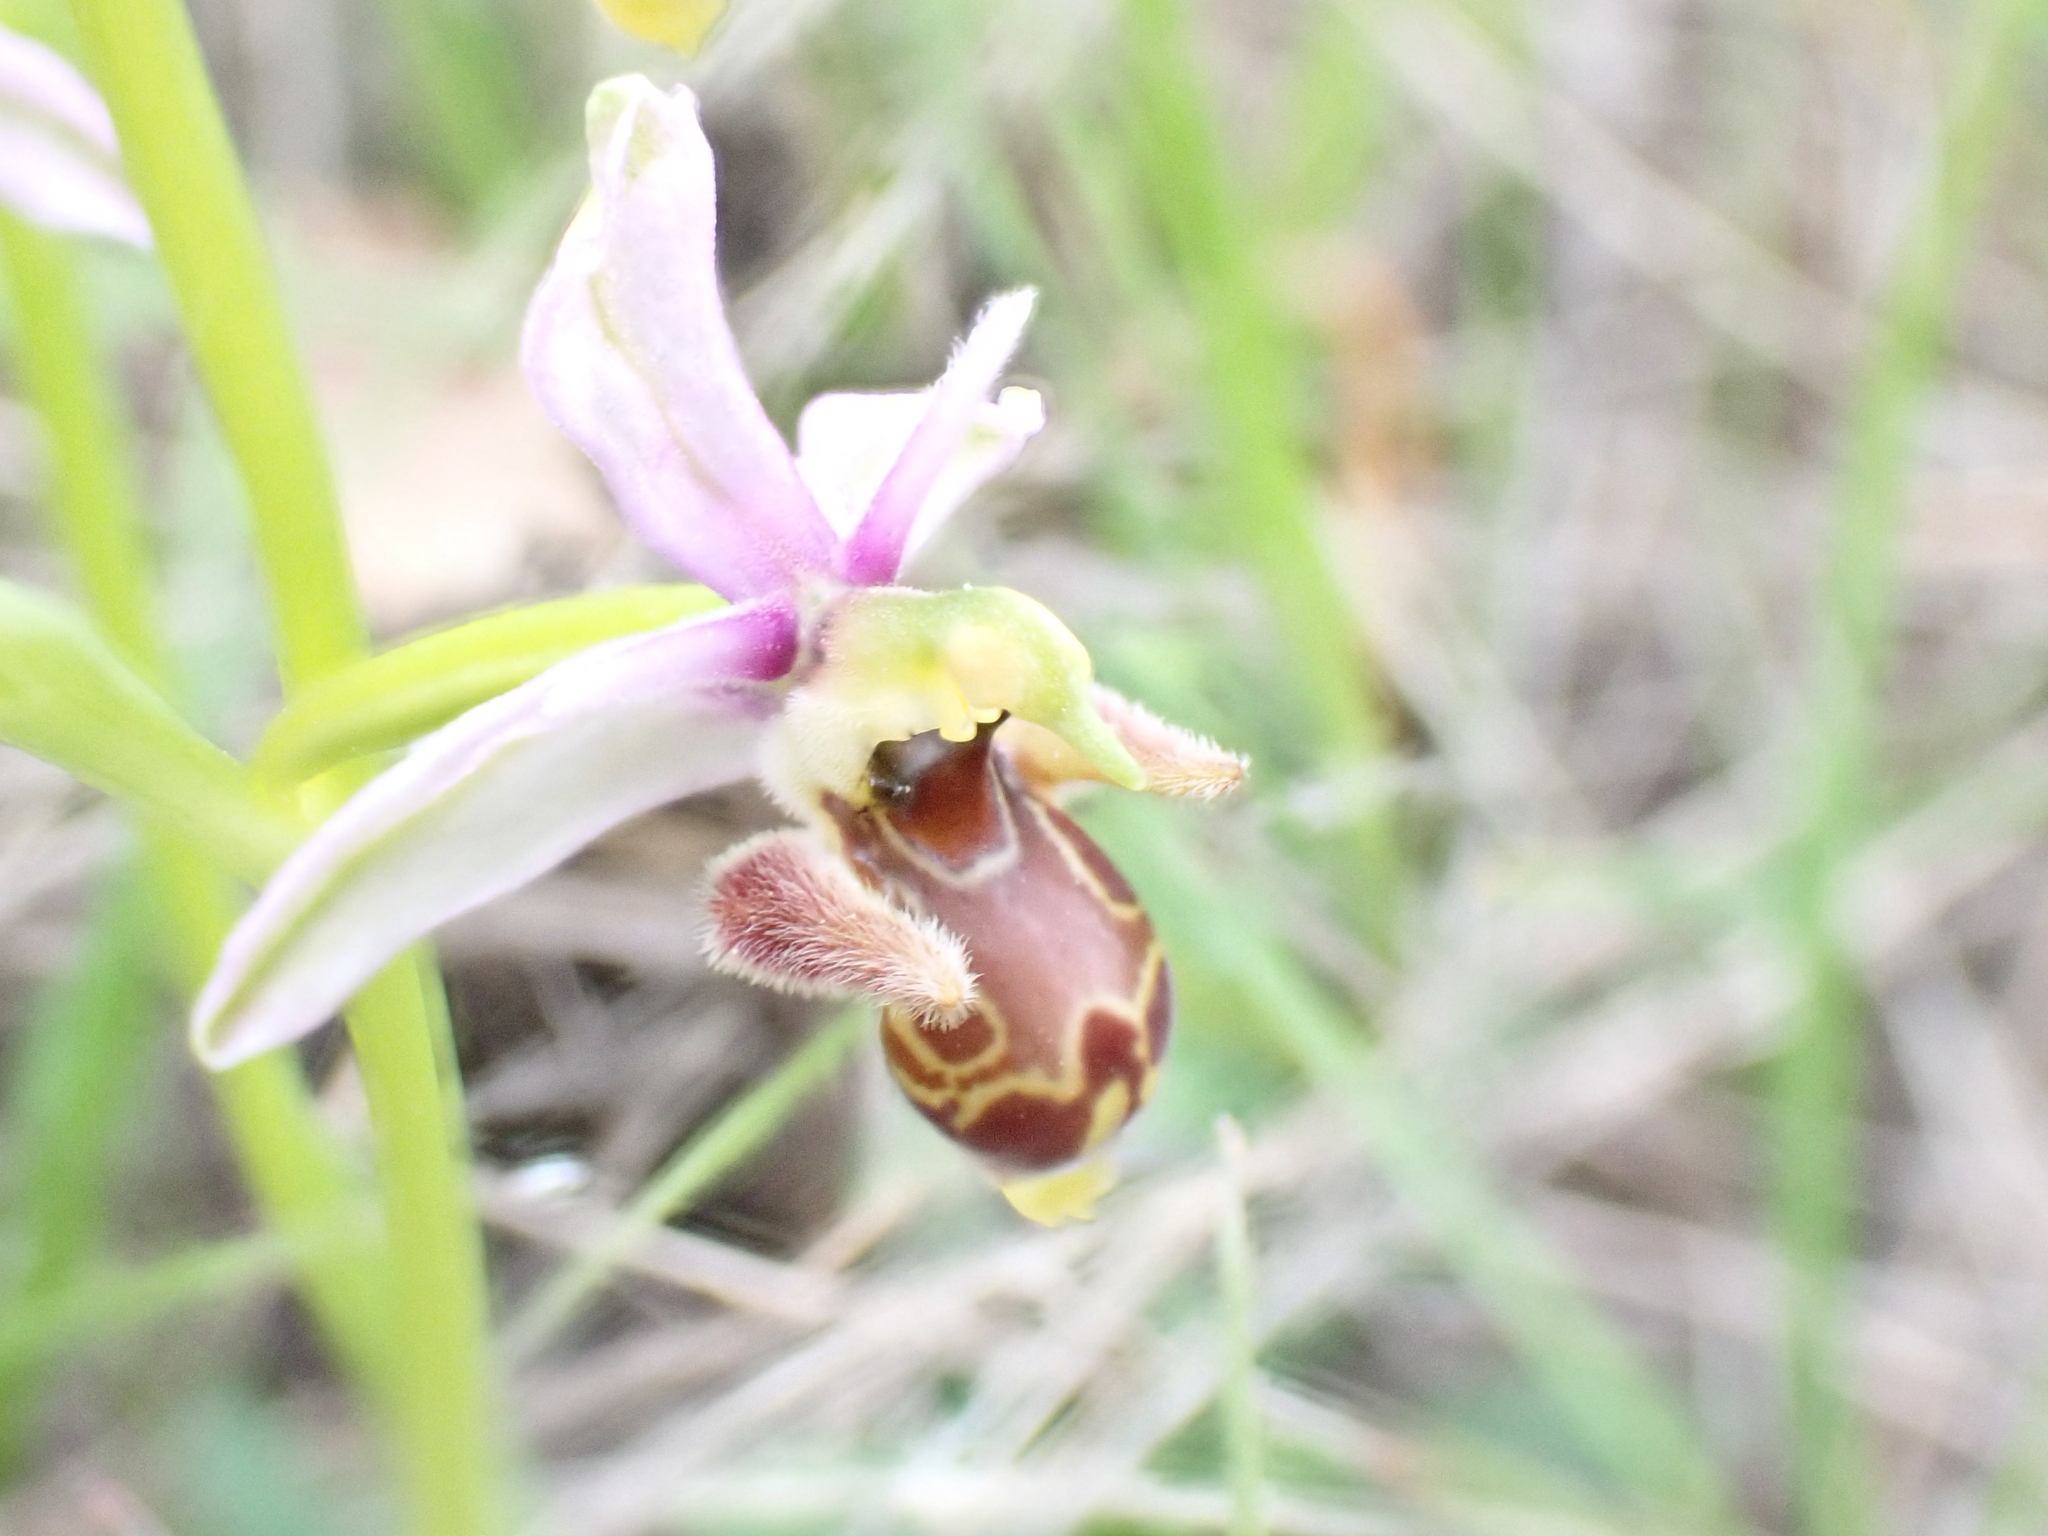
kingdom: Plantae
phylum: Tracheophyta
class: Liliopsida
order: Asparagales
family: Orchidaceae
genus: Ophrys
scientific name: Ophrys scolopax
